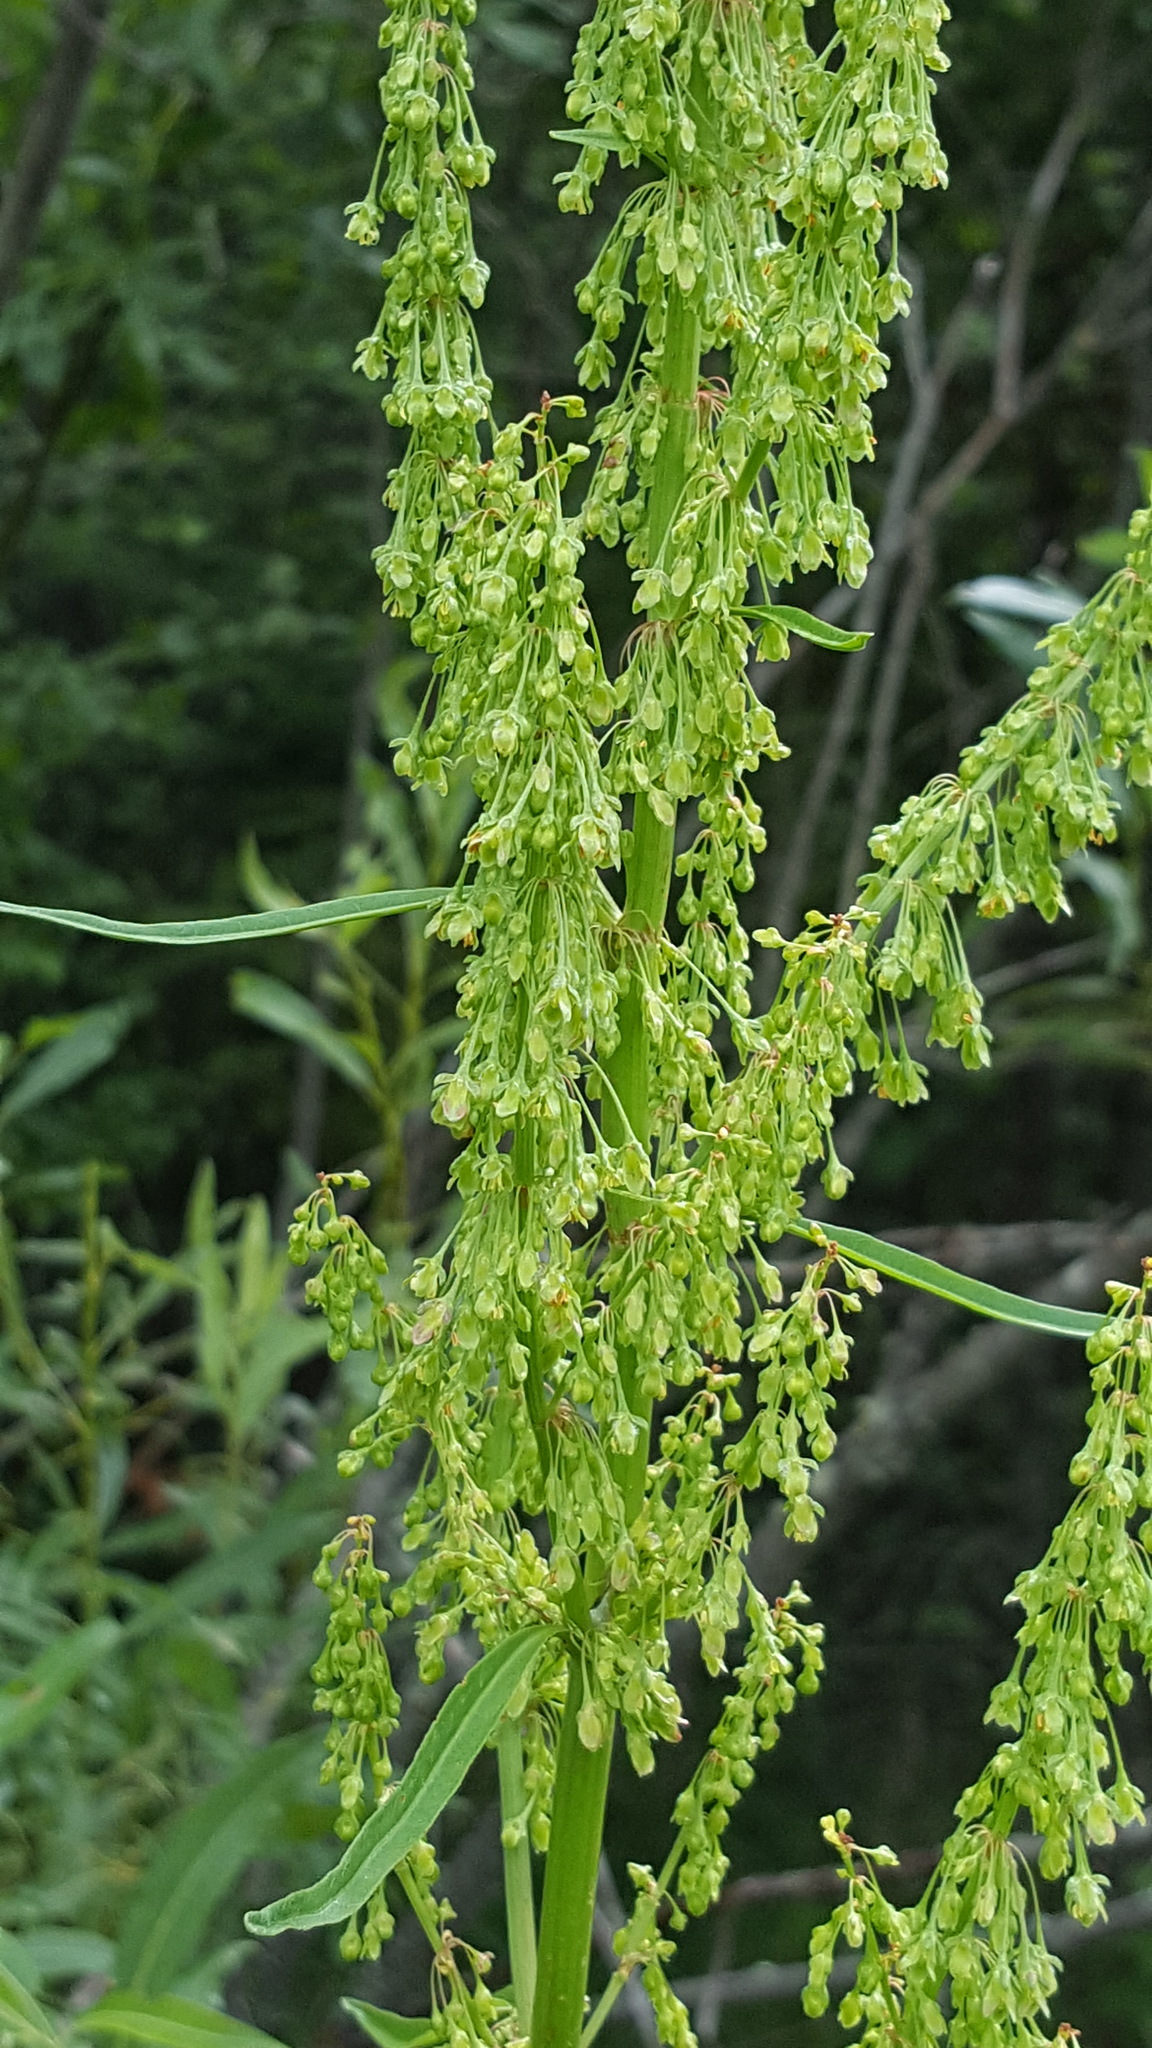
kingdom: Plantae
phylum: Tracheophyta
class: Magnoliopsida
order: Caryophyllales
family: Polygonaceae
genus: Rumex
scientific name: Rumex britannica
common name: British dock
